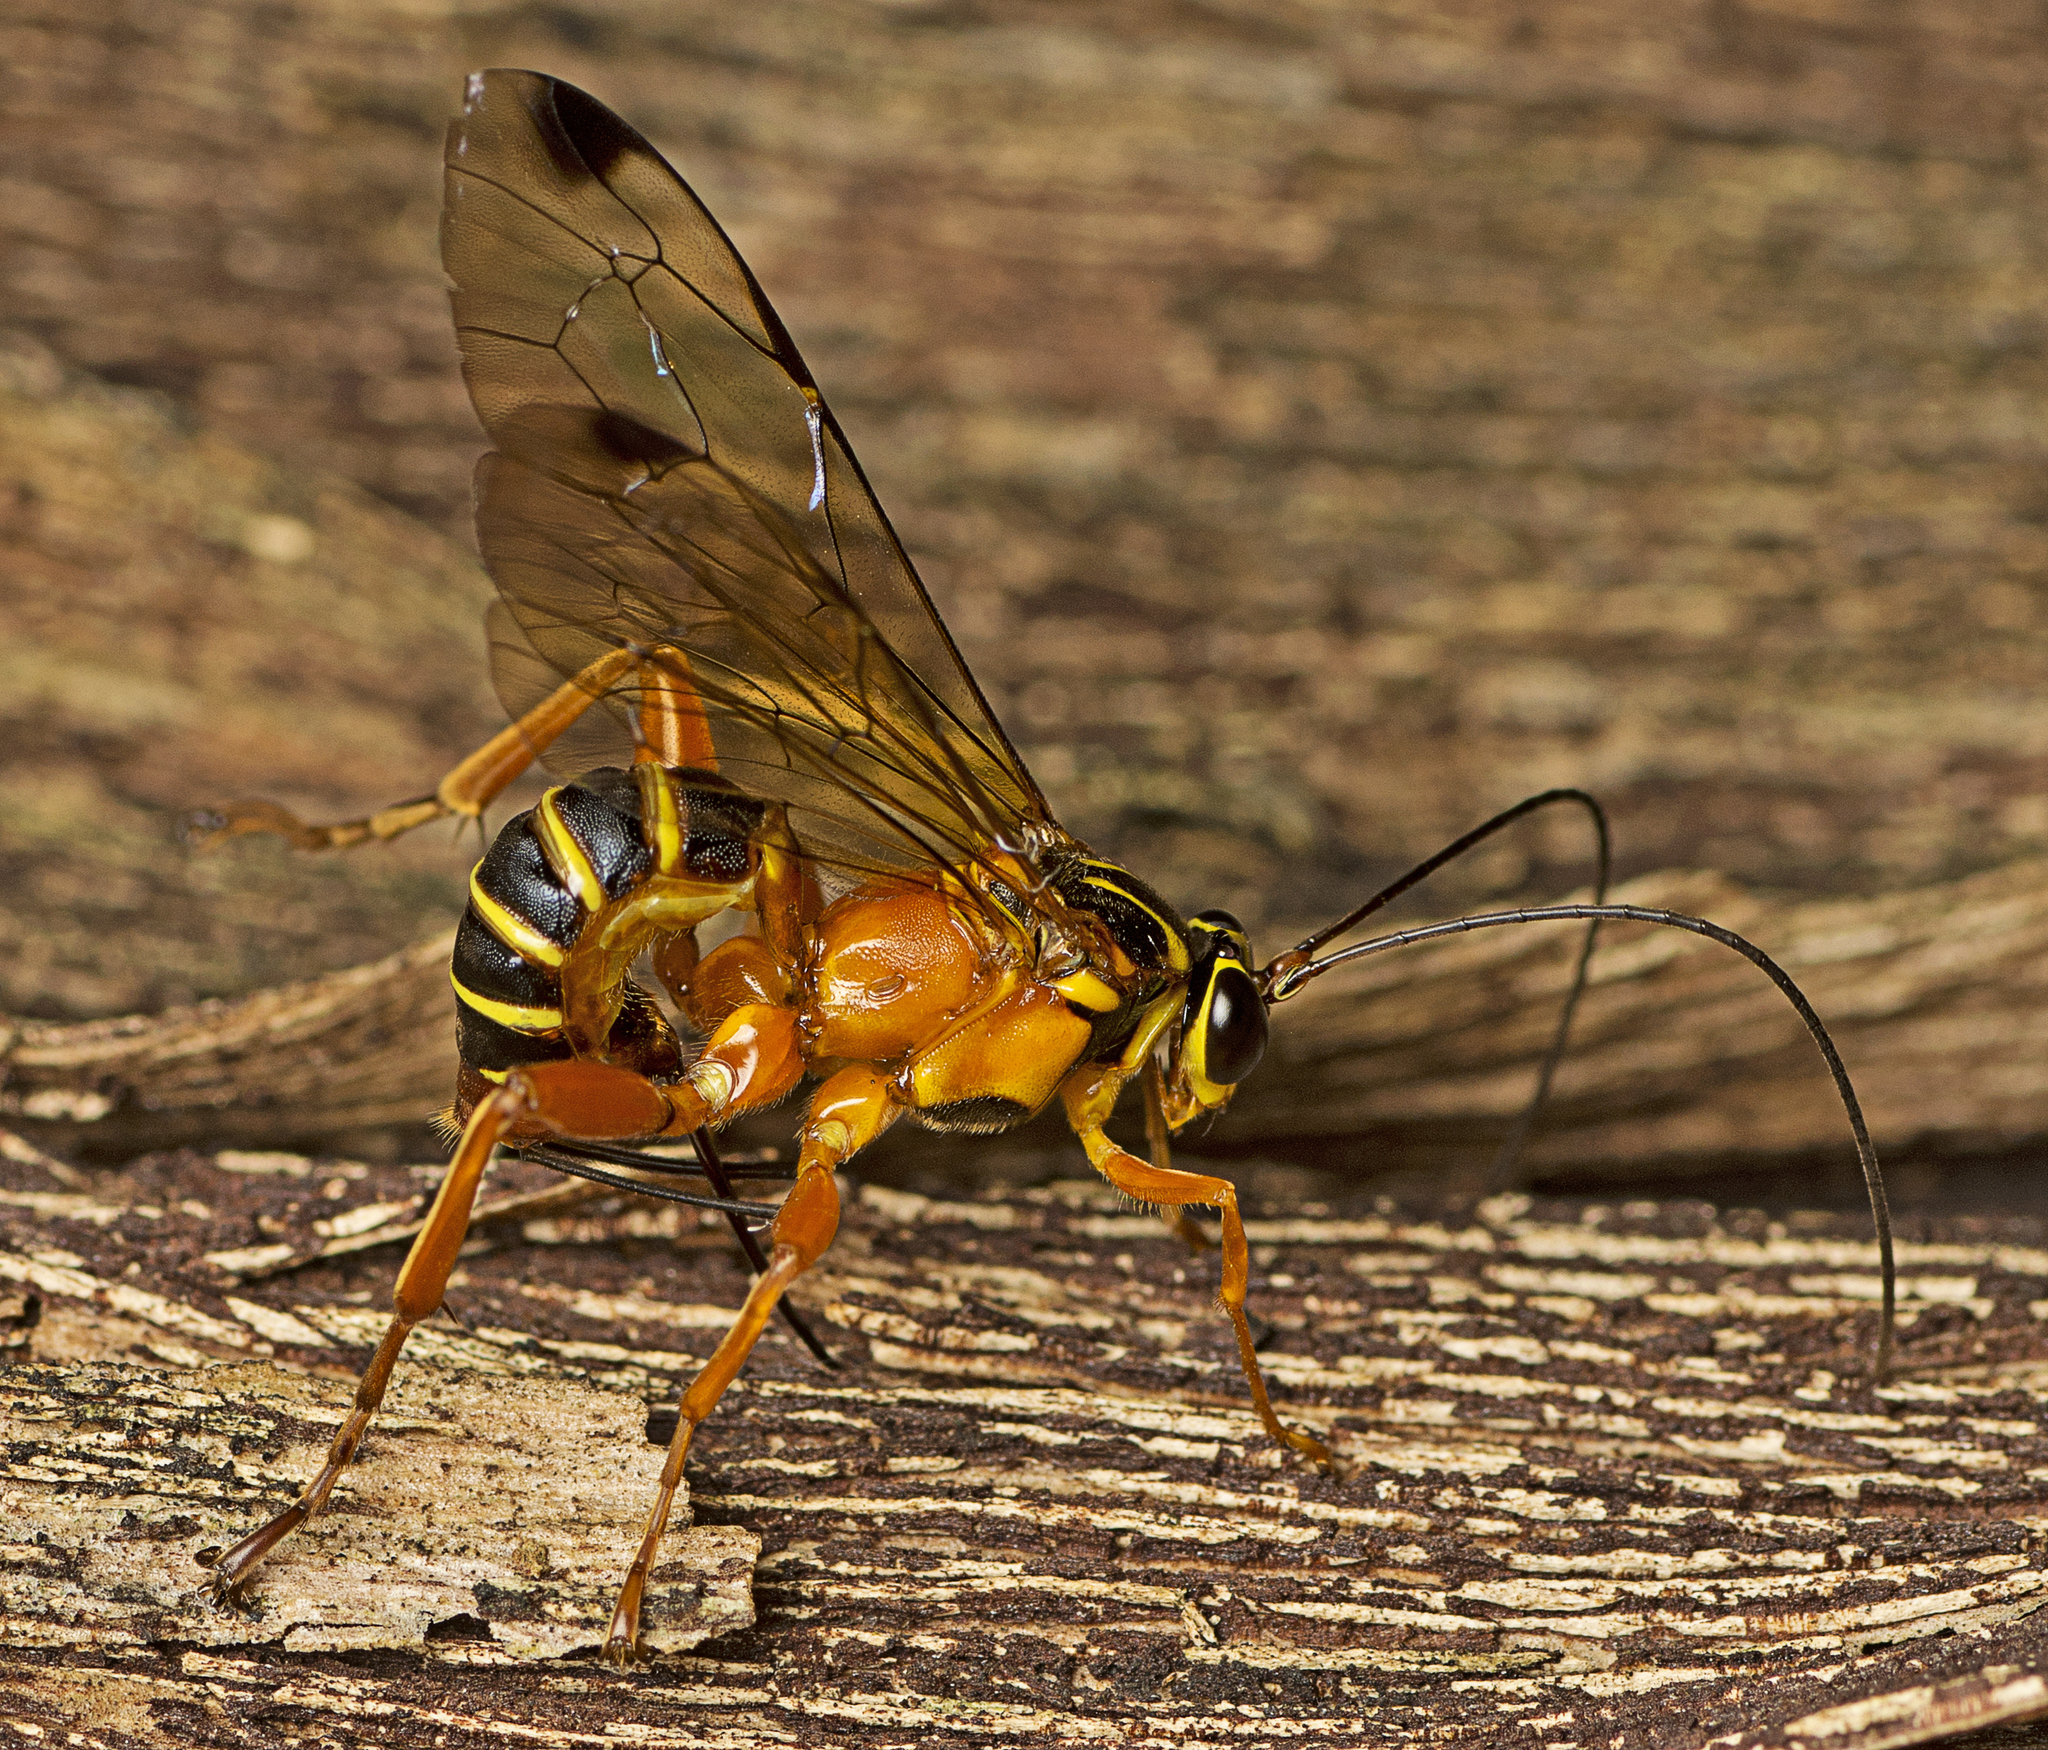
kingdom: Animalia
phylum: Arthropoda
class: Insecta
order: Hymenoptera
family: Ichneumonidae
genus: Echthromorpha
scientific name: Echthromorpha agrestoria
